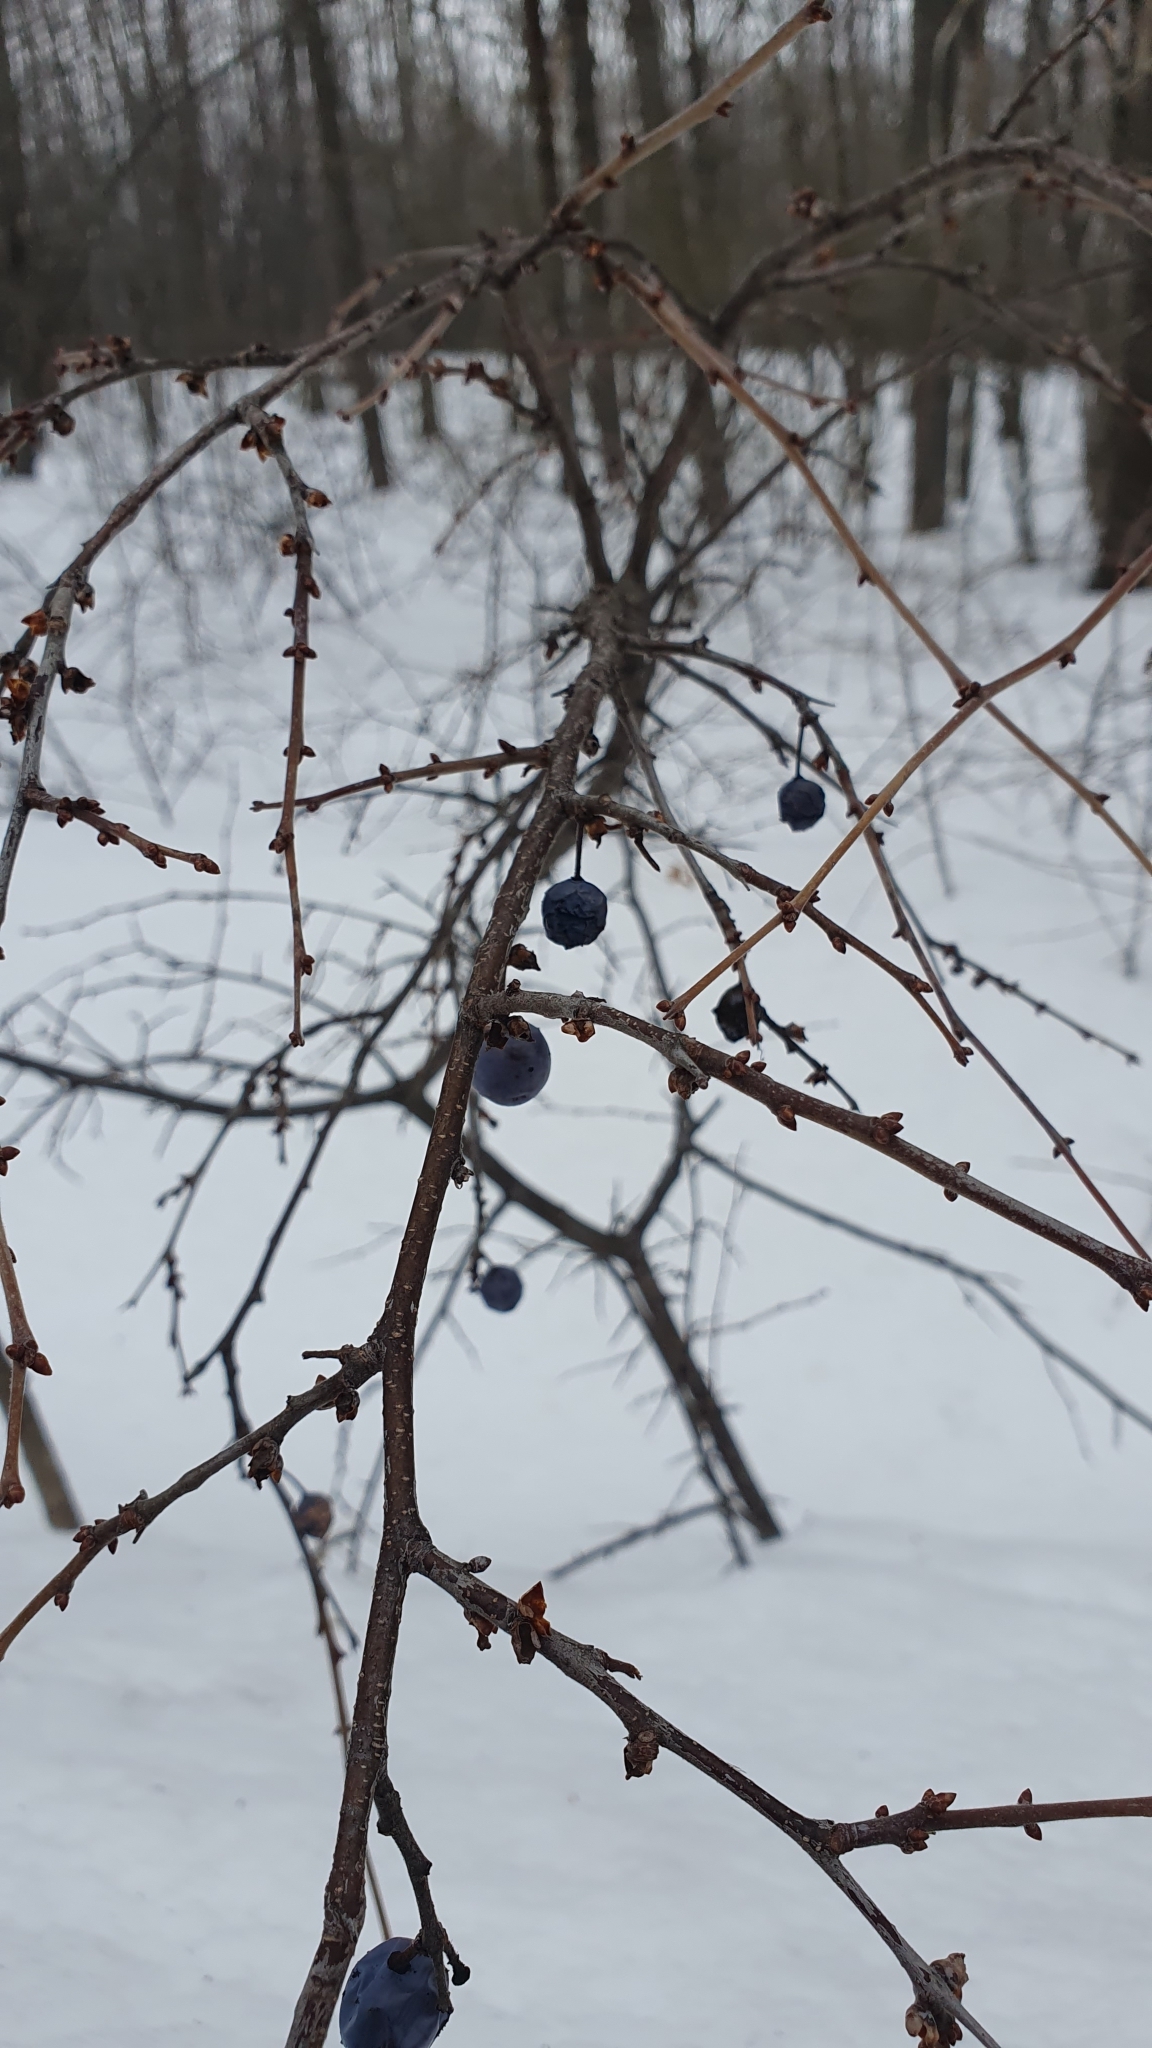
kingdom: Plantae
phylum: Tracheophyta
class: Magnoliopsida
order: Rosales
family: Rosaceae
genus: Prunus
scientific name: Prunus spinosa
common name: Blackthorn
